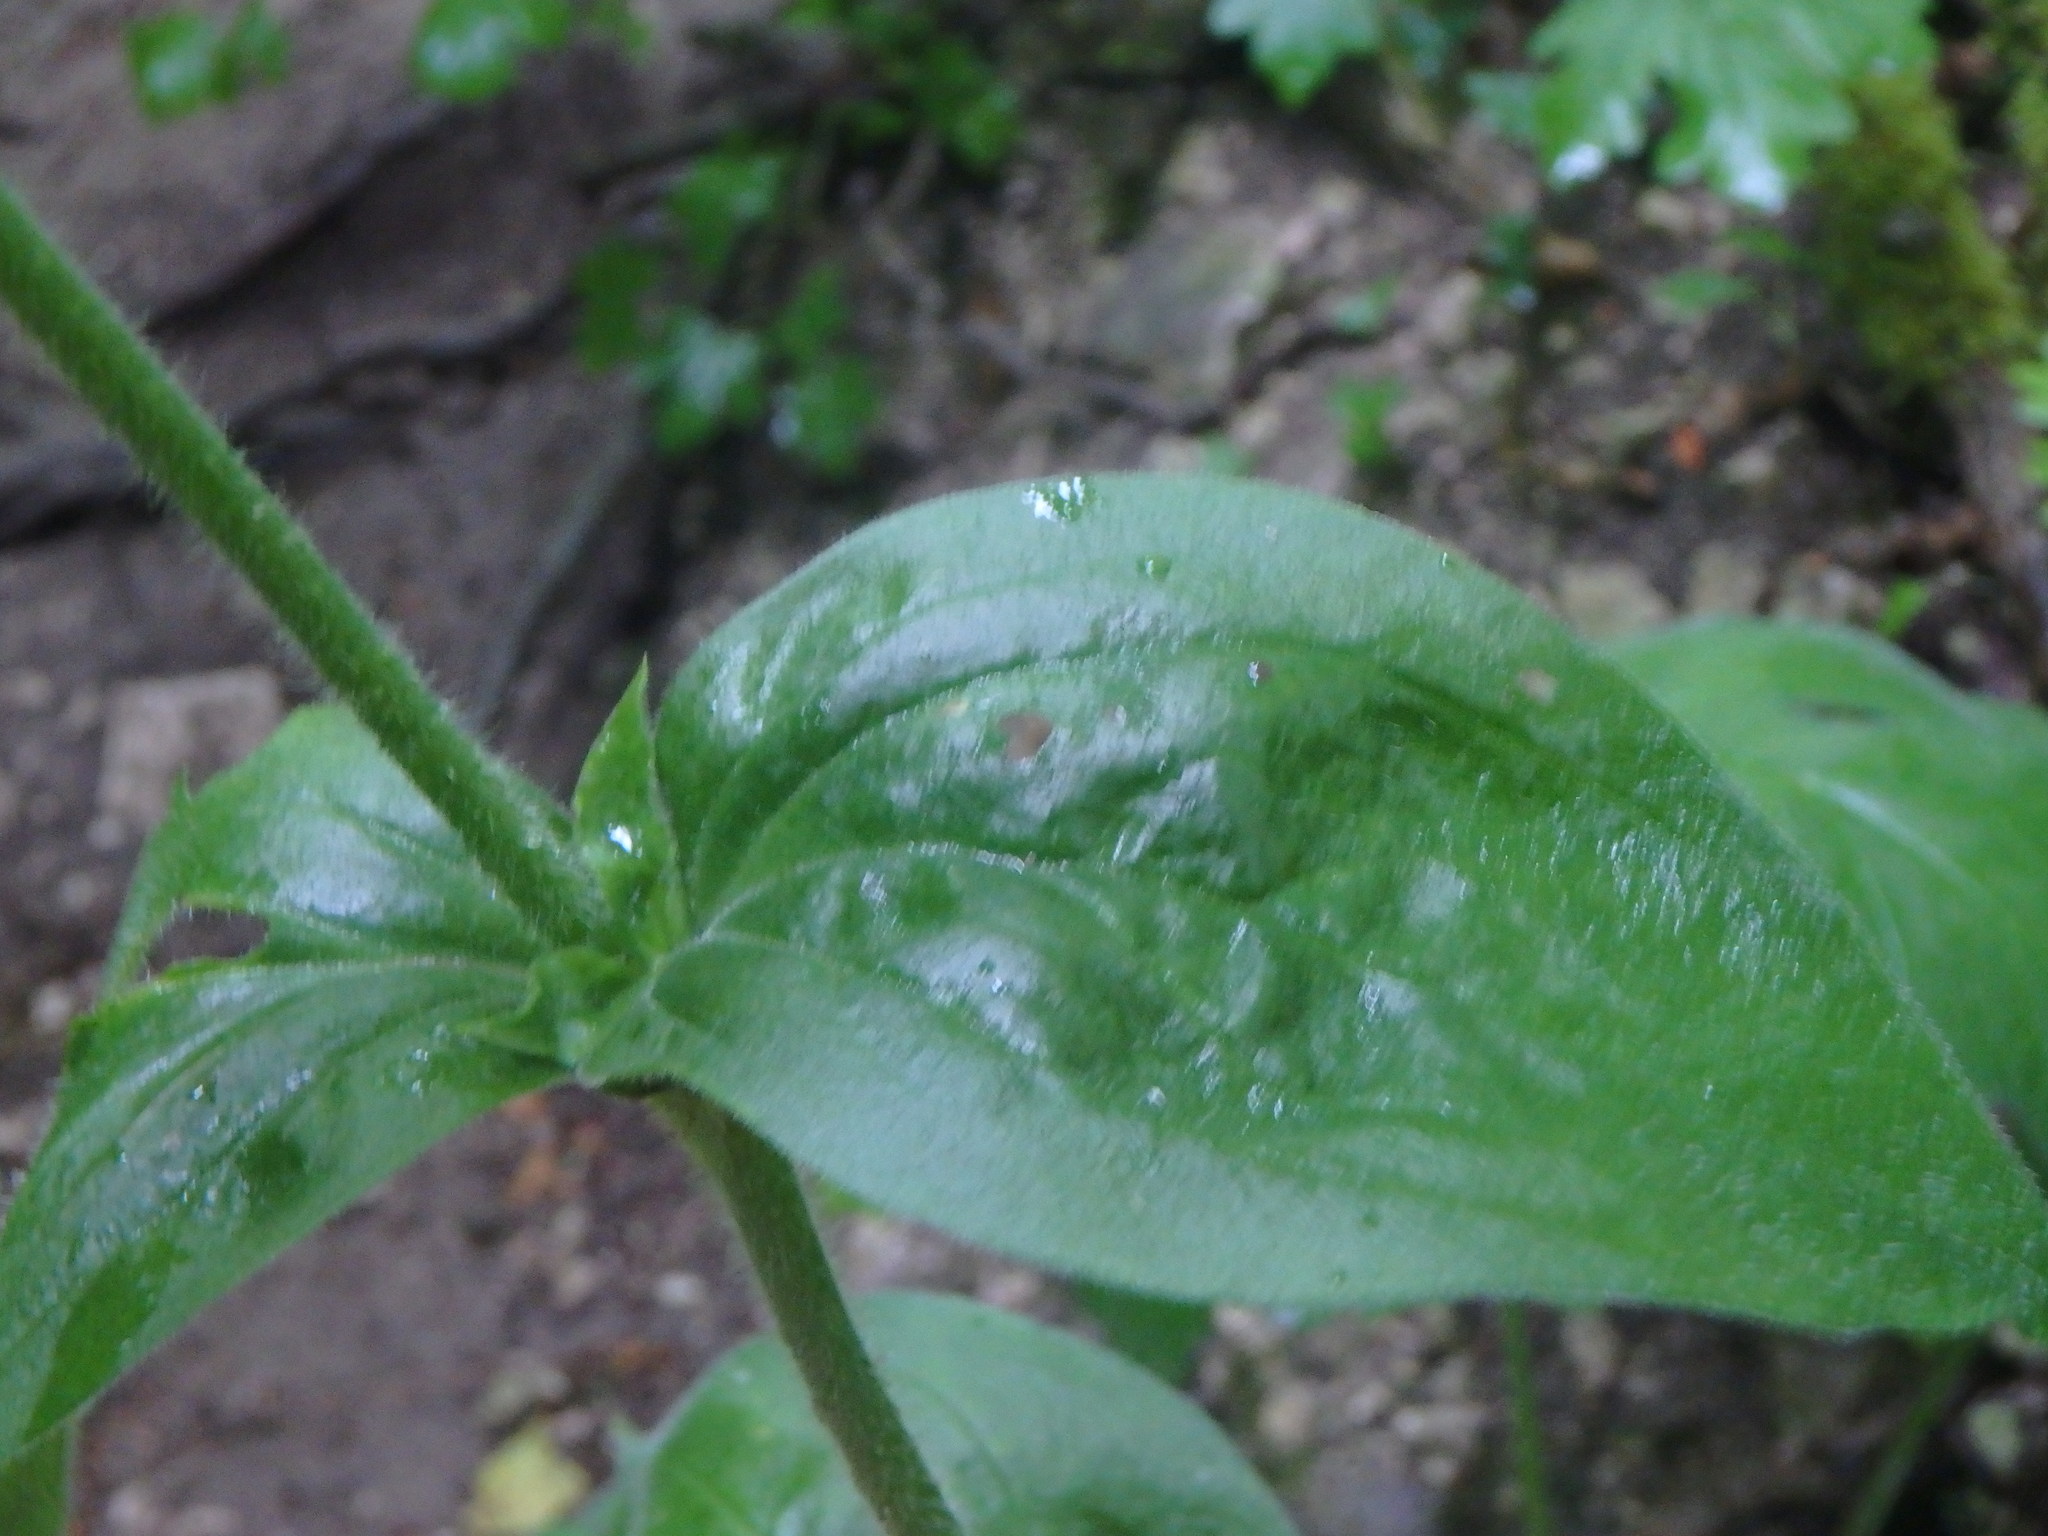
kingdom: Plantae
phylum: Tracheophyta
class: Magnoliopsida
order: Caryophyllales
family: Caryophyllaceae
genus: Silene
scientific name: Silene latifolia
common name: White campion
